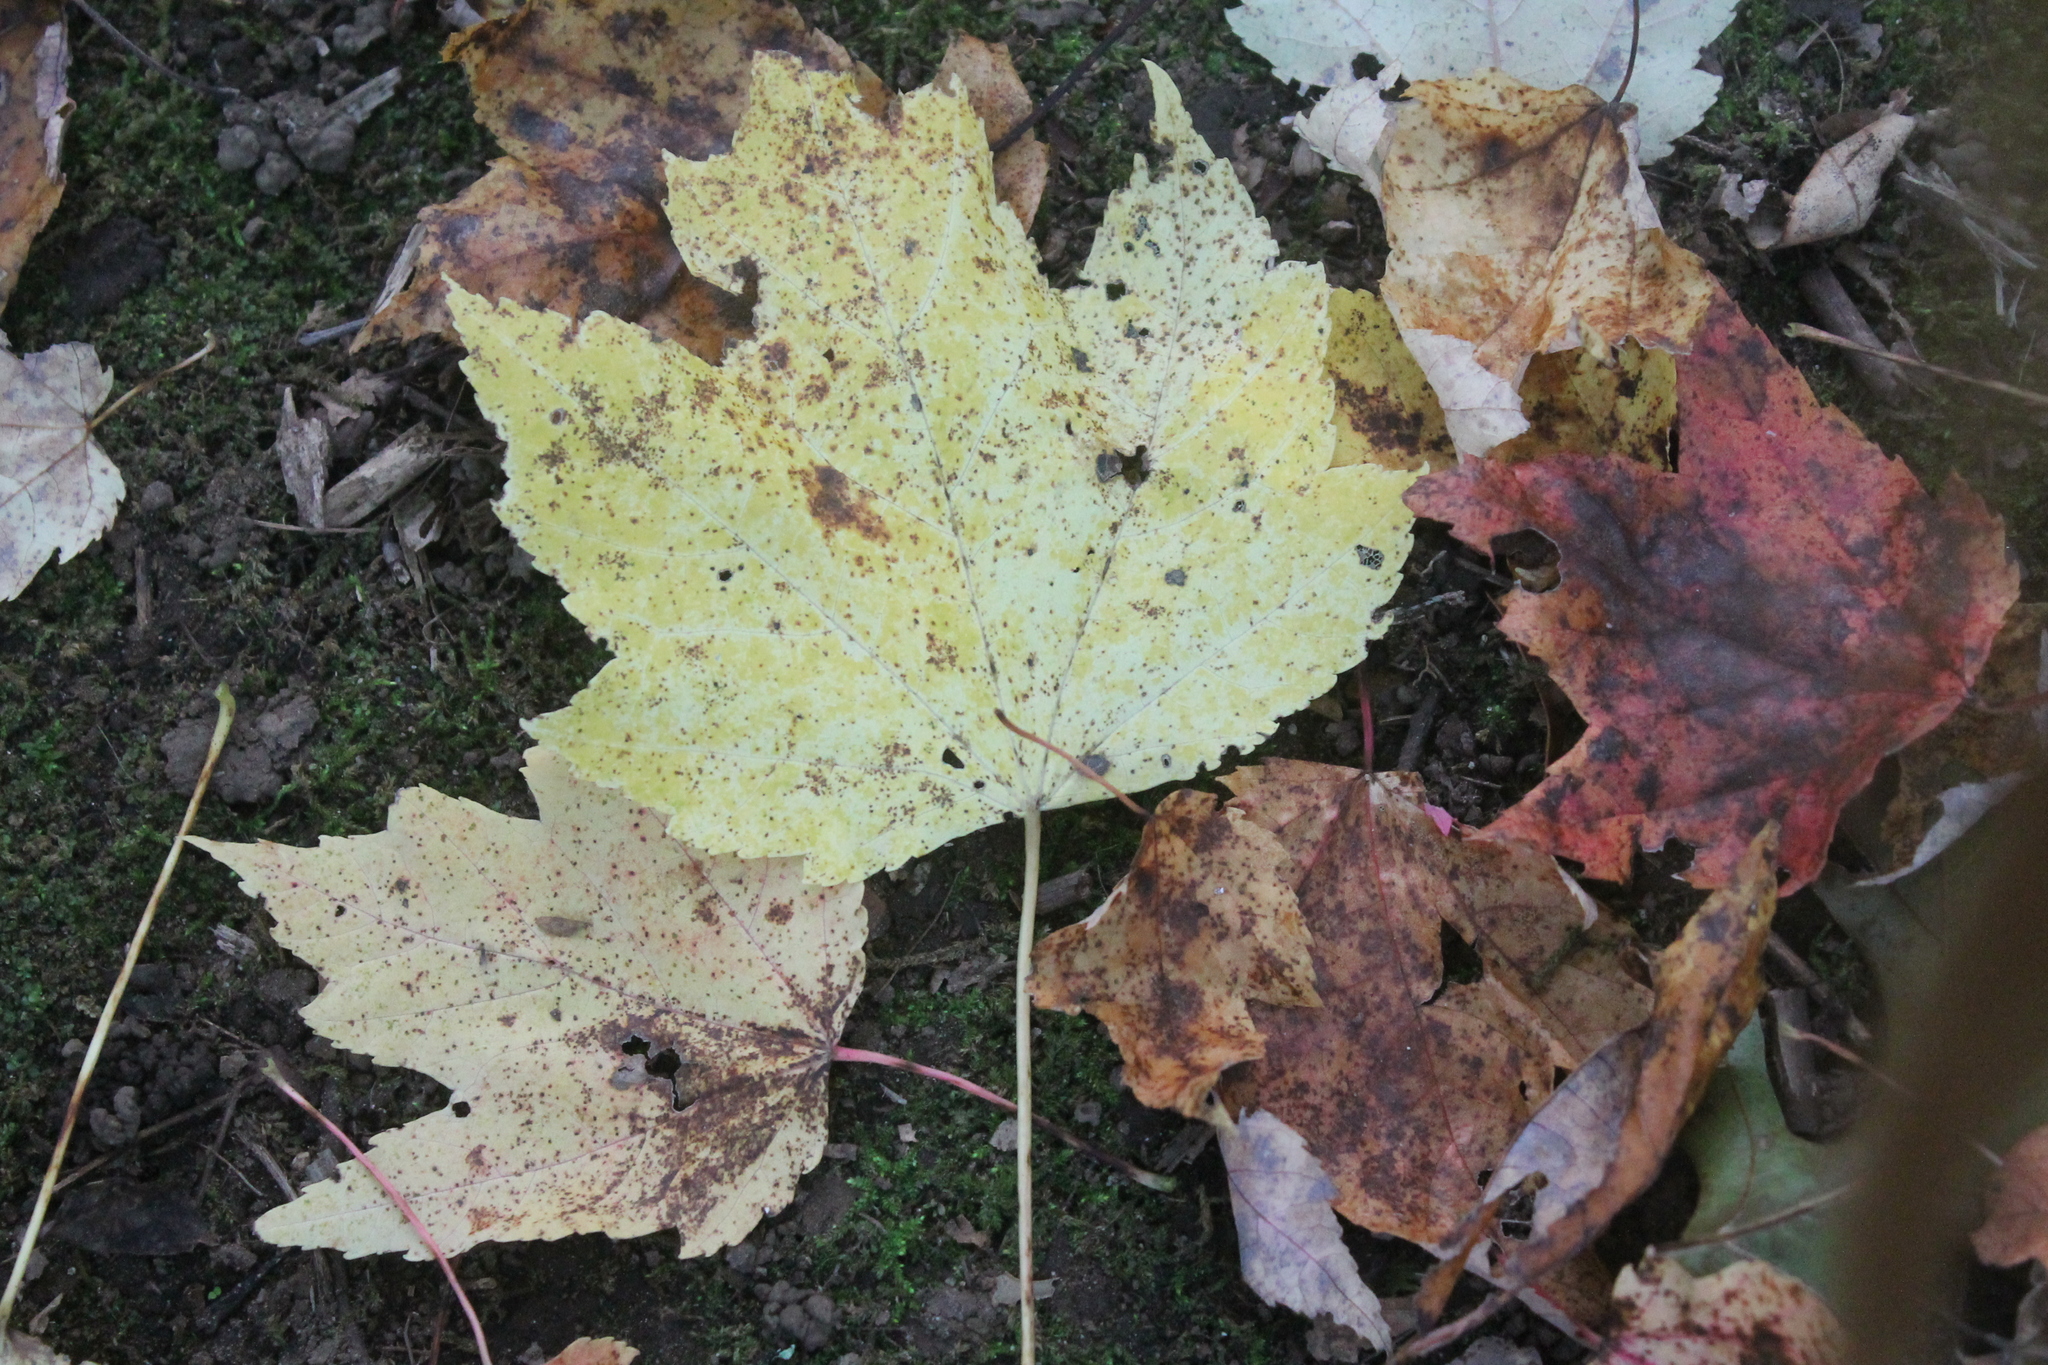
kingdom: Plantae
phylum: Tracheophyta
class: Magnoliopsida
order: Sapindales
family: Sapindaceae
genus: Acer
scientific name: Acer rubrum
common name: Red maple
